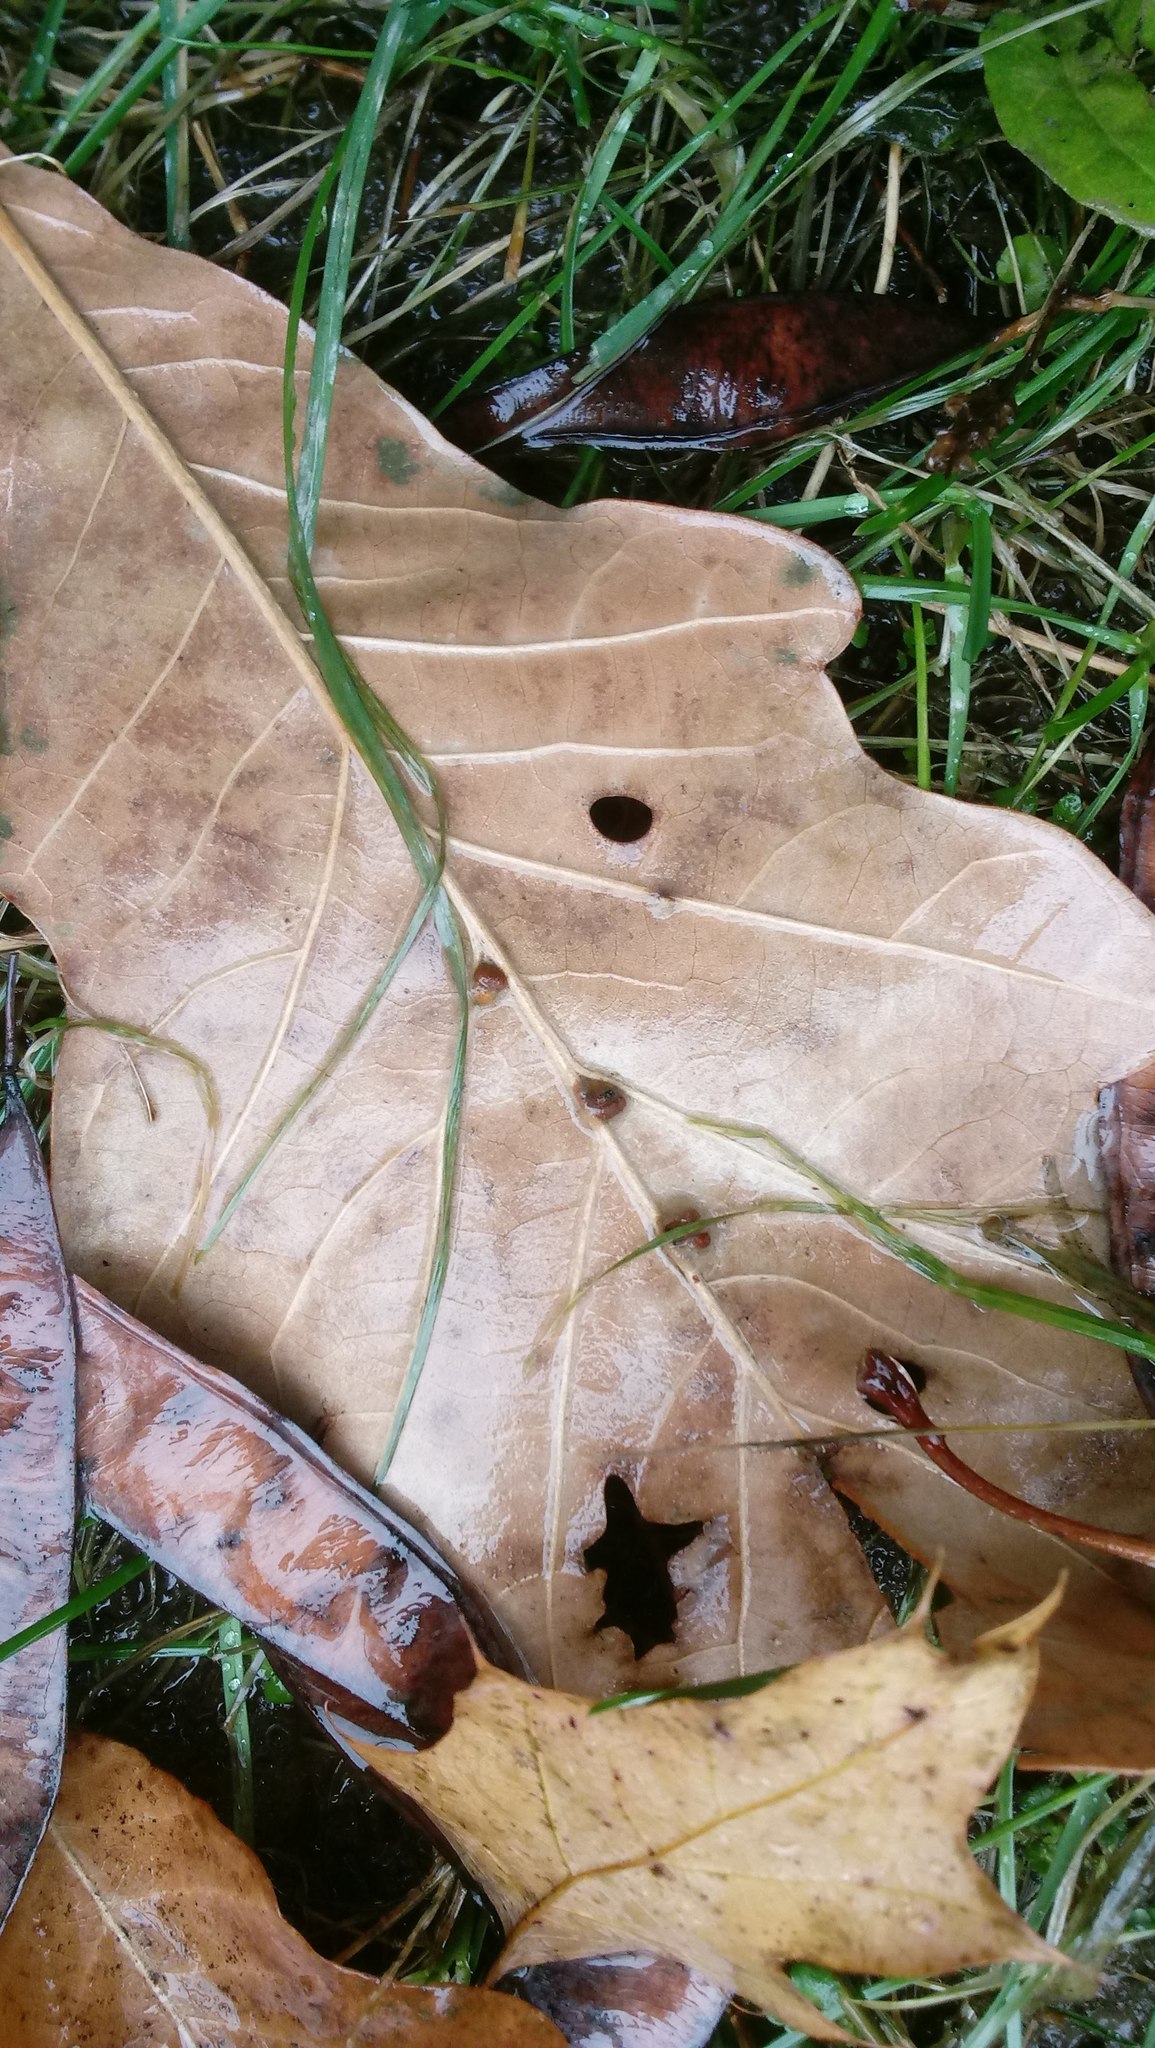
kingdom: Animalia
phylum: Arthropoda
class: Insecta
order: Hymenoptera
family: Cynipidae
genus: Andricus
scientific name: Andricus Druon ignotum
